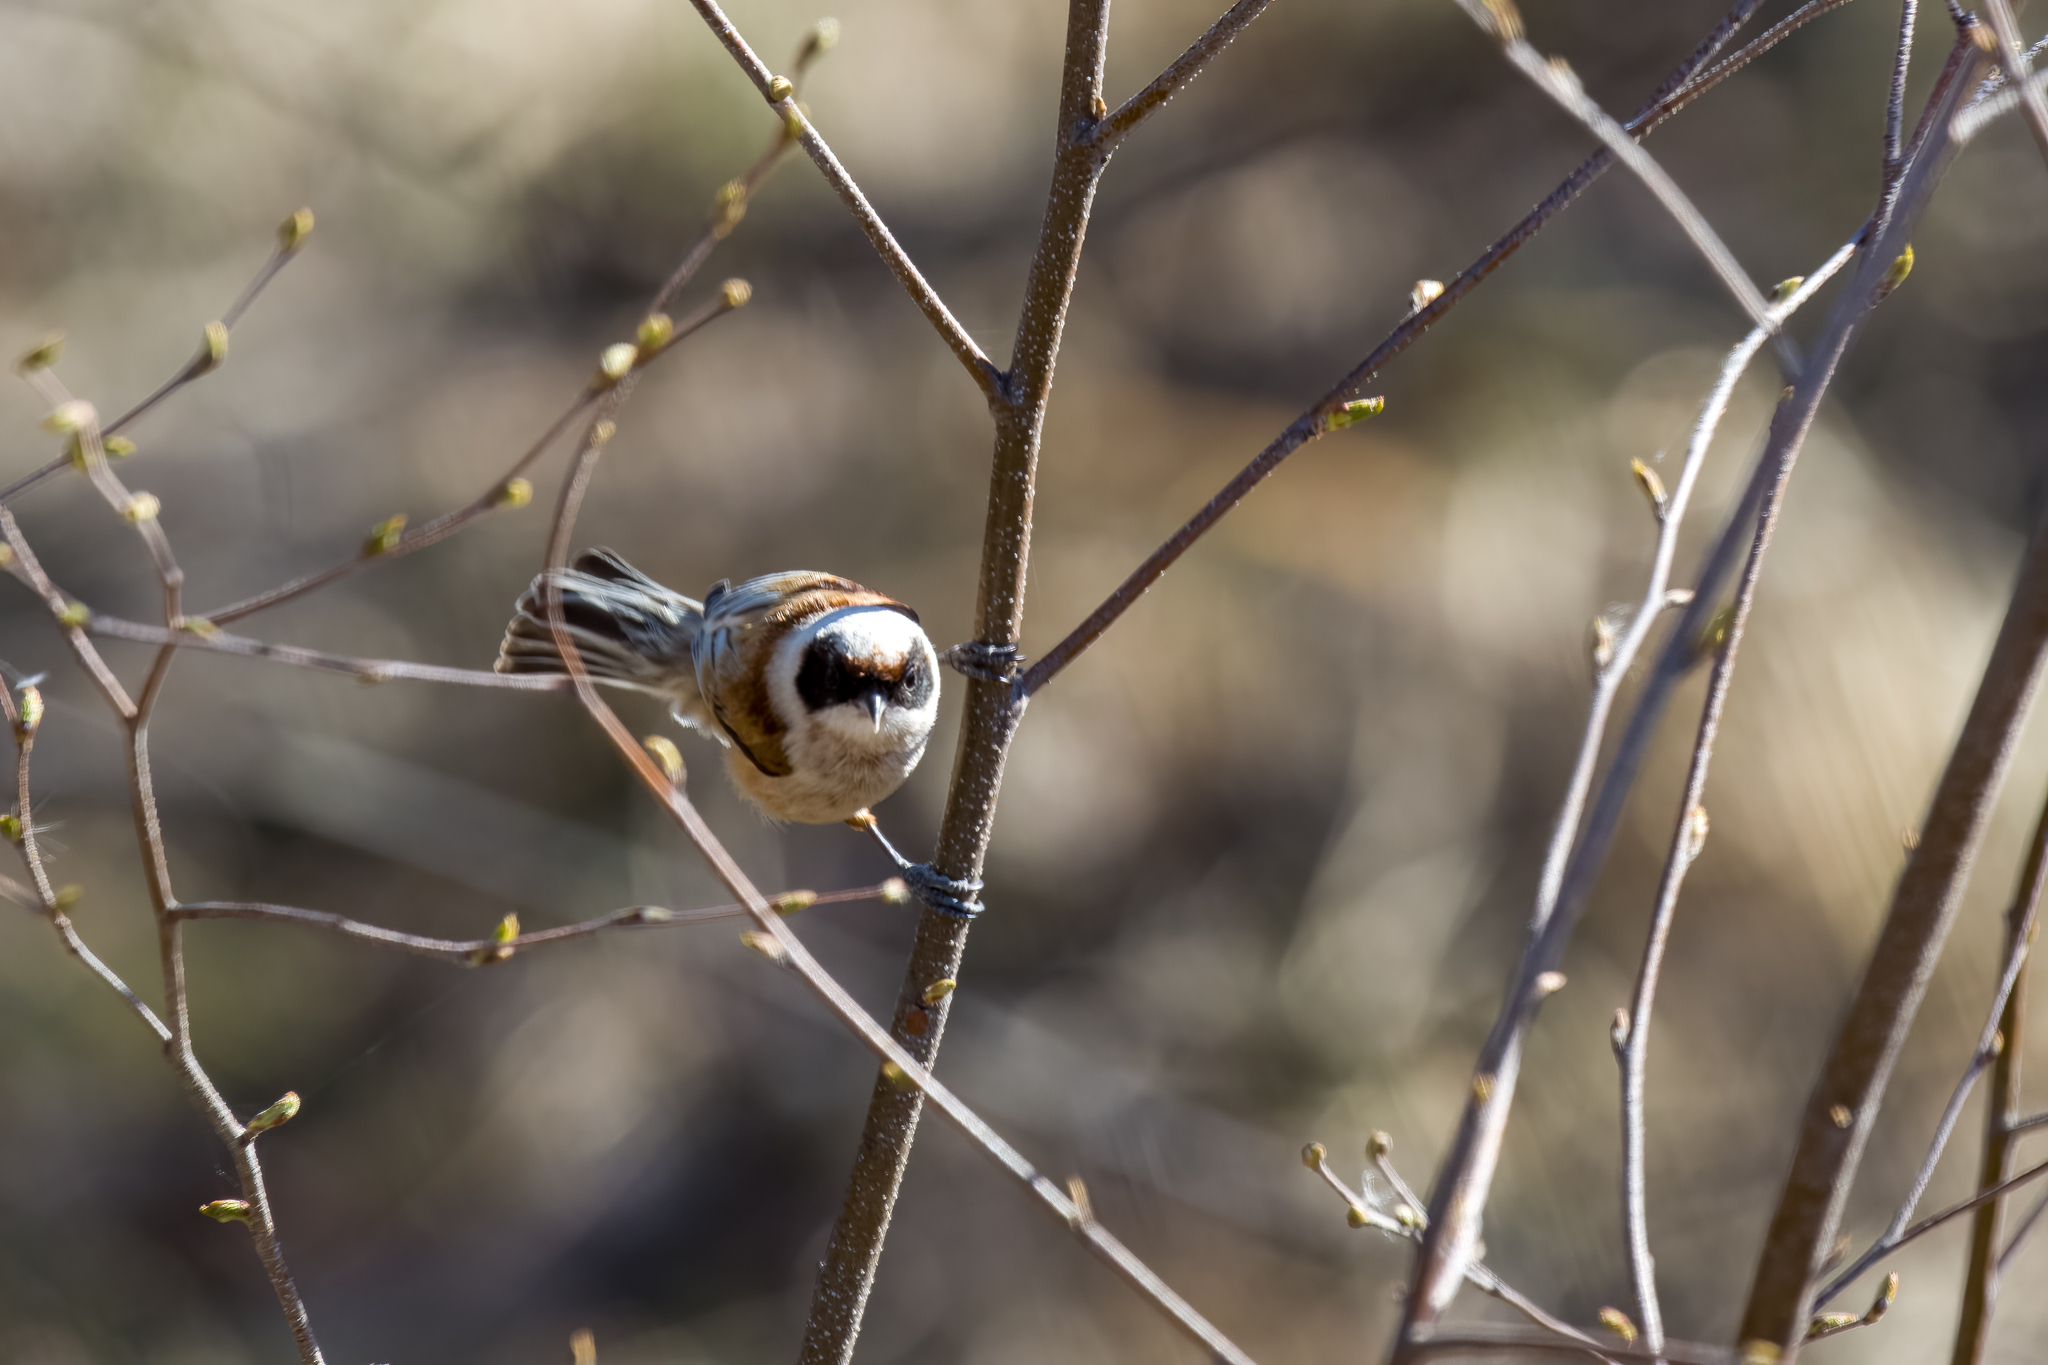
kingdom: Animalia
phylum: Chordata
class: Aves
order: Passeriformes
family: Remizidae
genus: Remiz
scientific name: Remiz pendulinus
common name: Eurasian penduline tit
